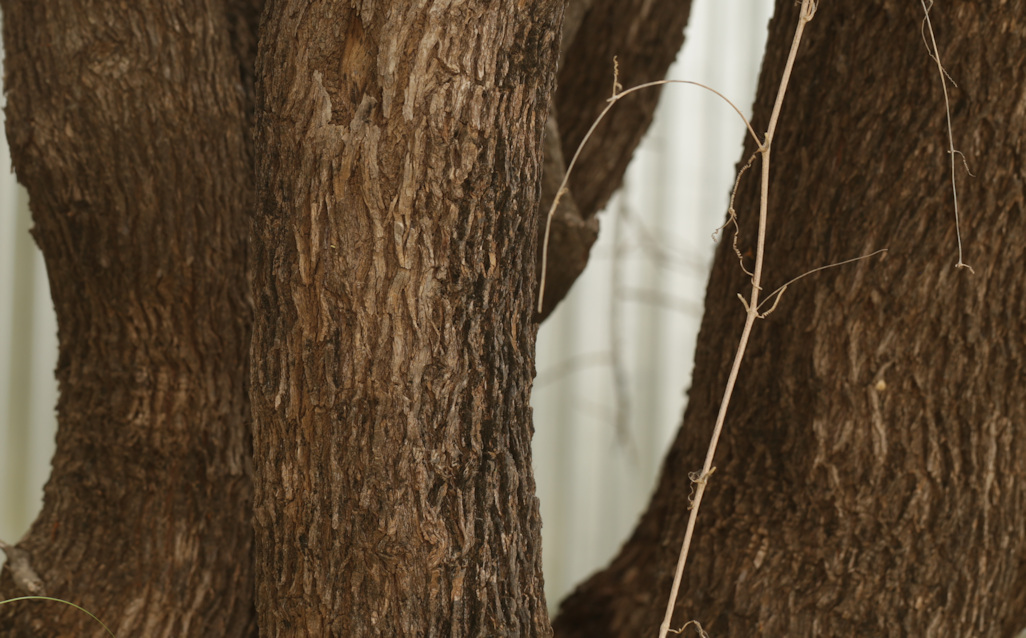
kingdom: Plantae
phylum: Tracheophyta
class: Magnoliopsida
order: Myrtales
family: Combretaceae
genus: Combretum
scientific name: Combretum imberbe
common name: Leadwood
